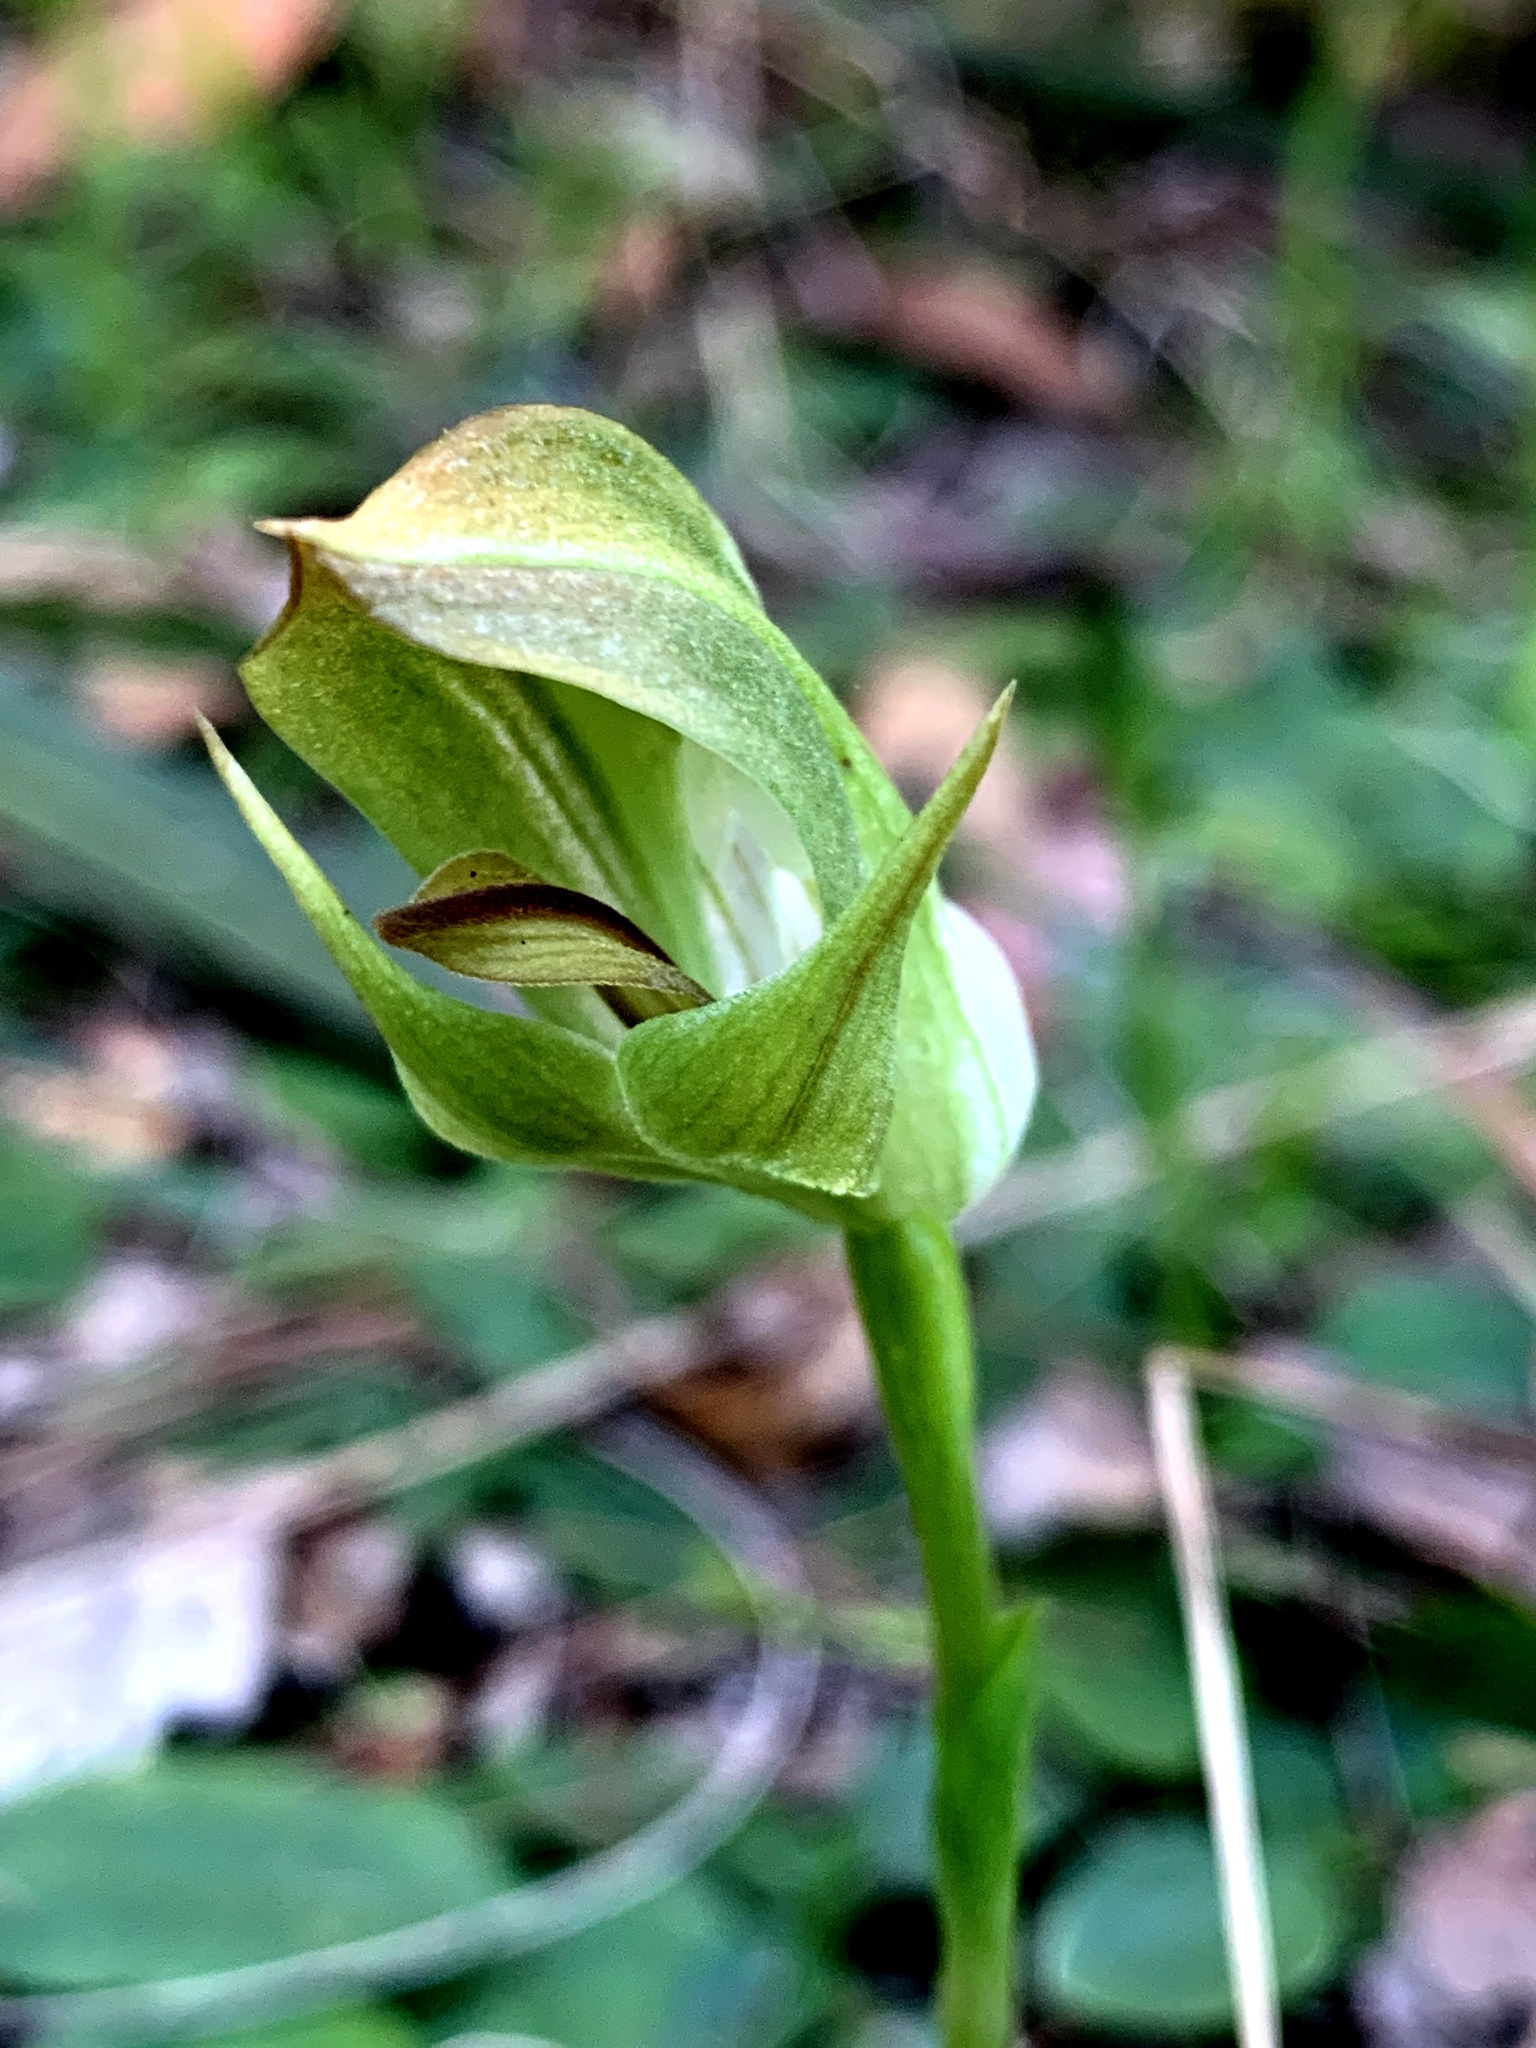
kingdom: Plantae
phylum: Tracheophyta
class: Liliopsida
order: Asparagales
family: Orchidaceae
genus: Pterostylis
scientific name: Pterostylis curta
